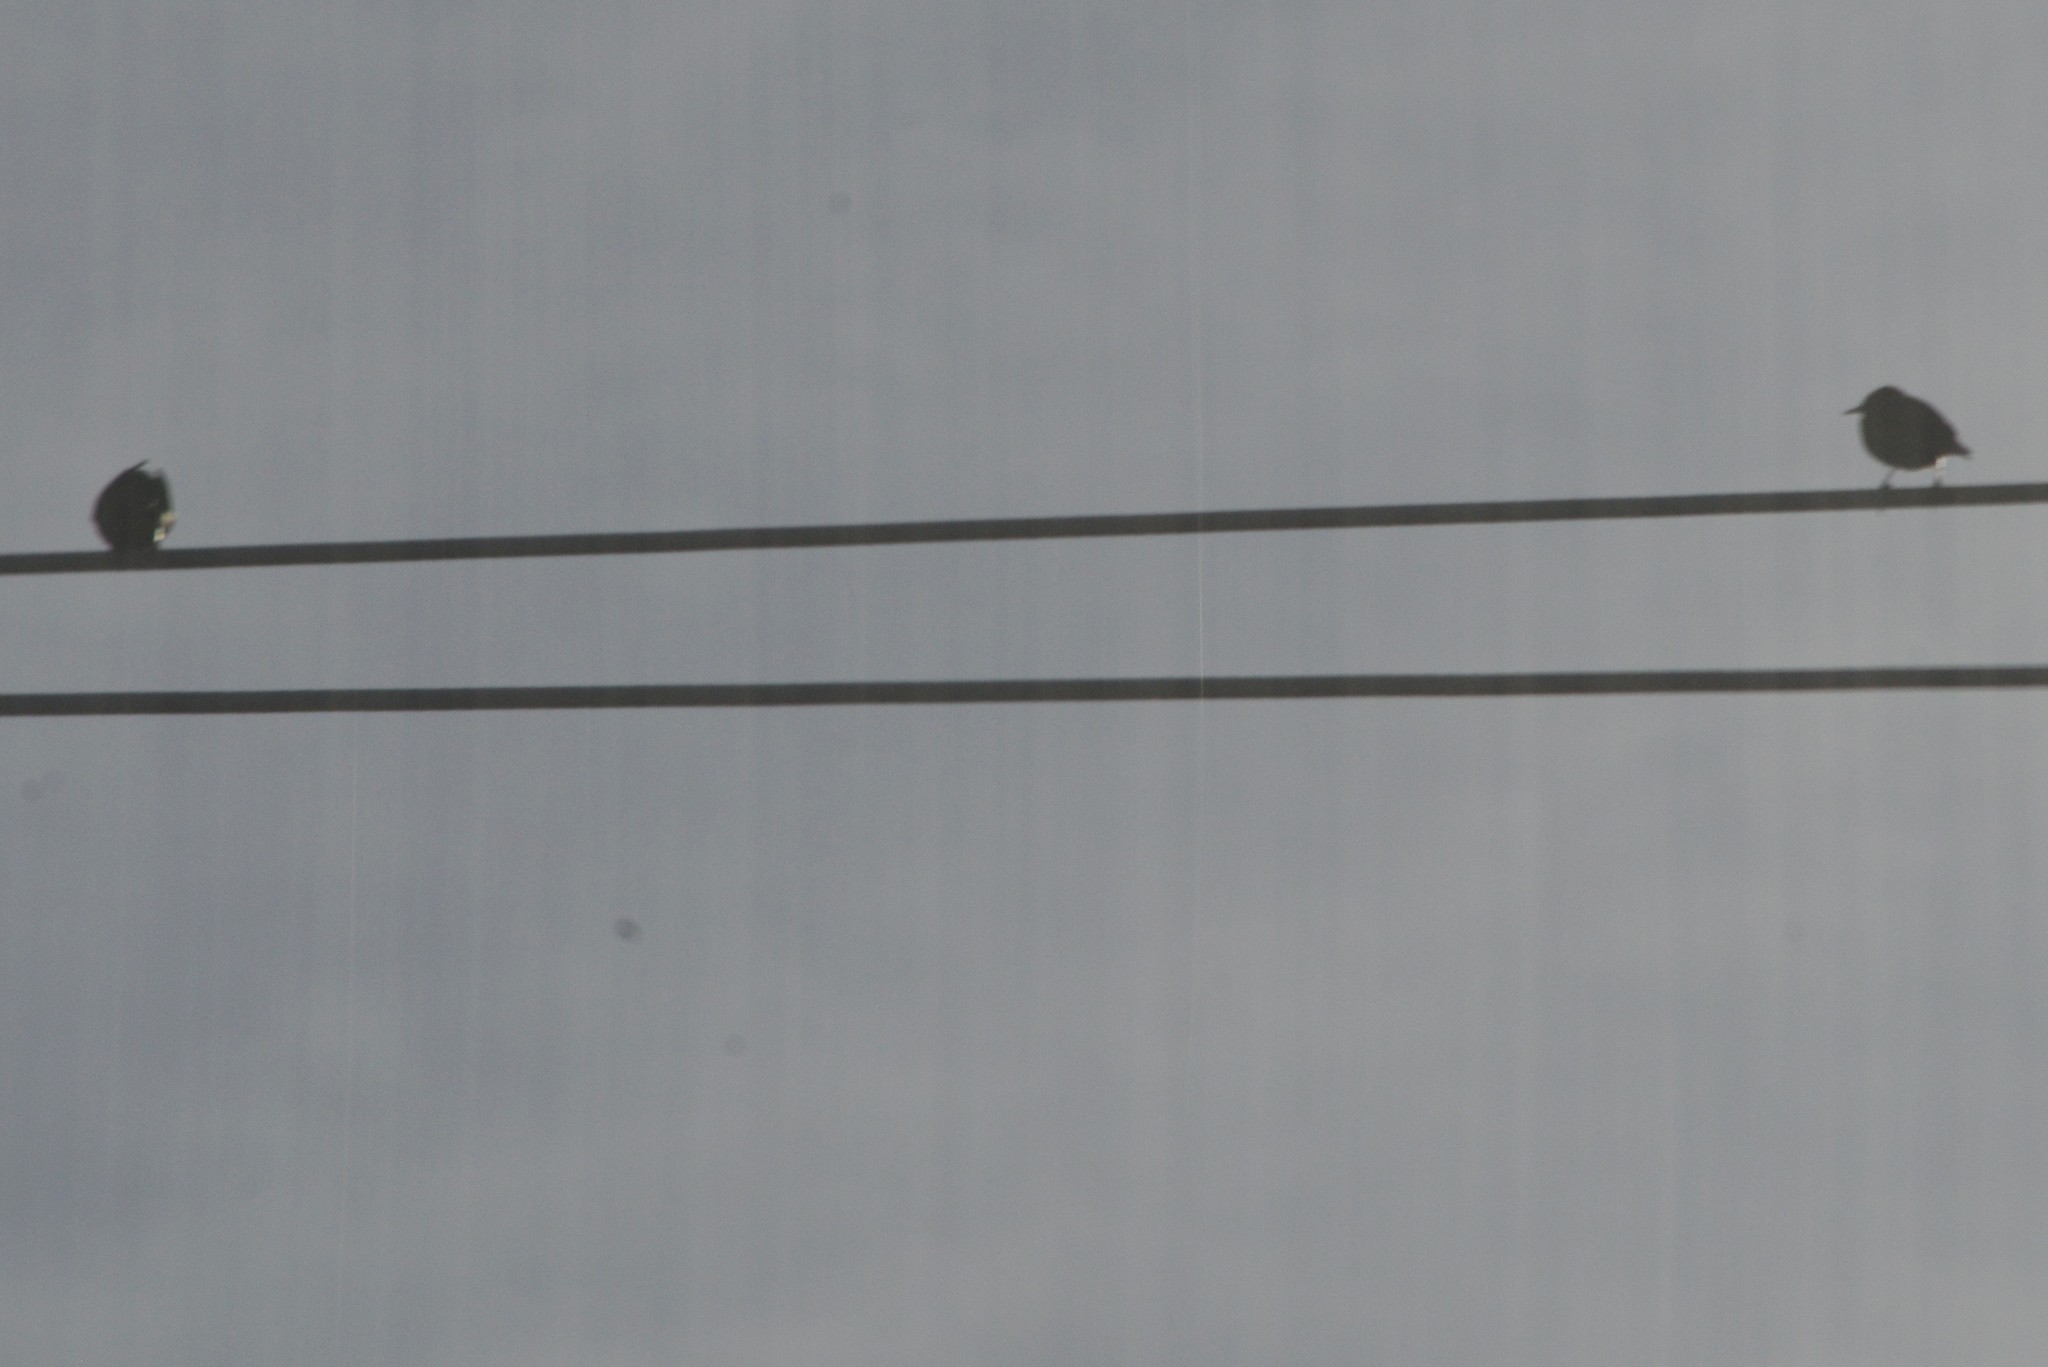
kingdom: Animalia
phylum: Chordata
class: Aves
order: Passeriformes
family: Sturnidae
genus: Sturnus
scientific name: Sturnus vulgaris
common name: Common starling
